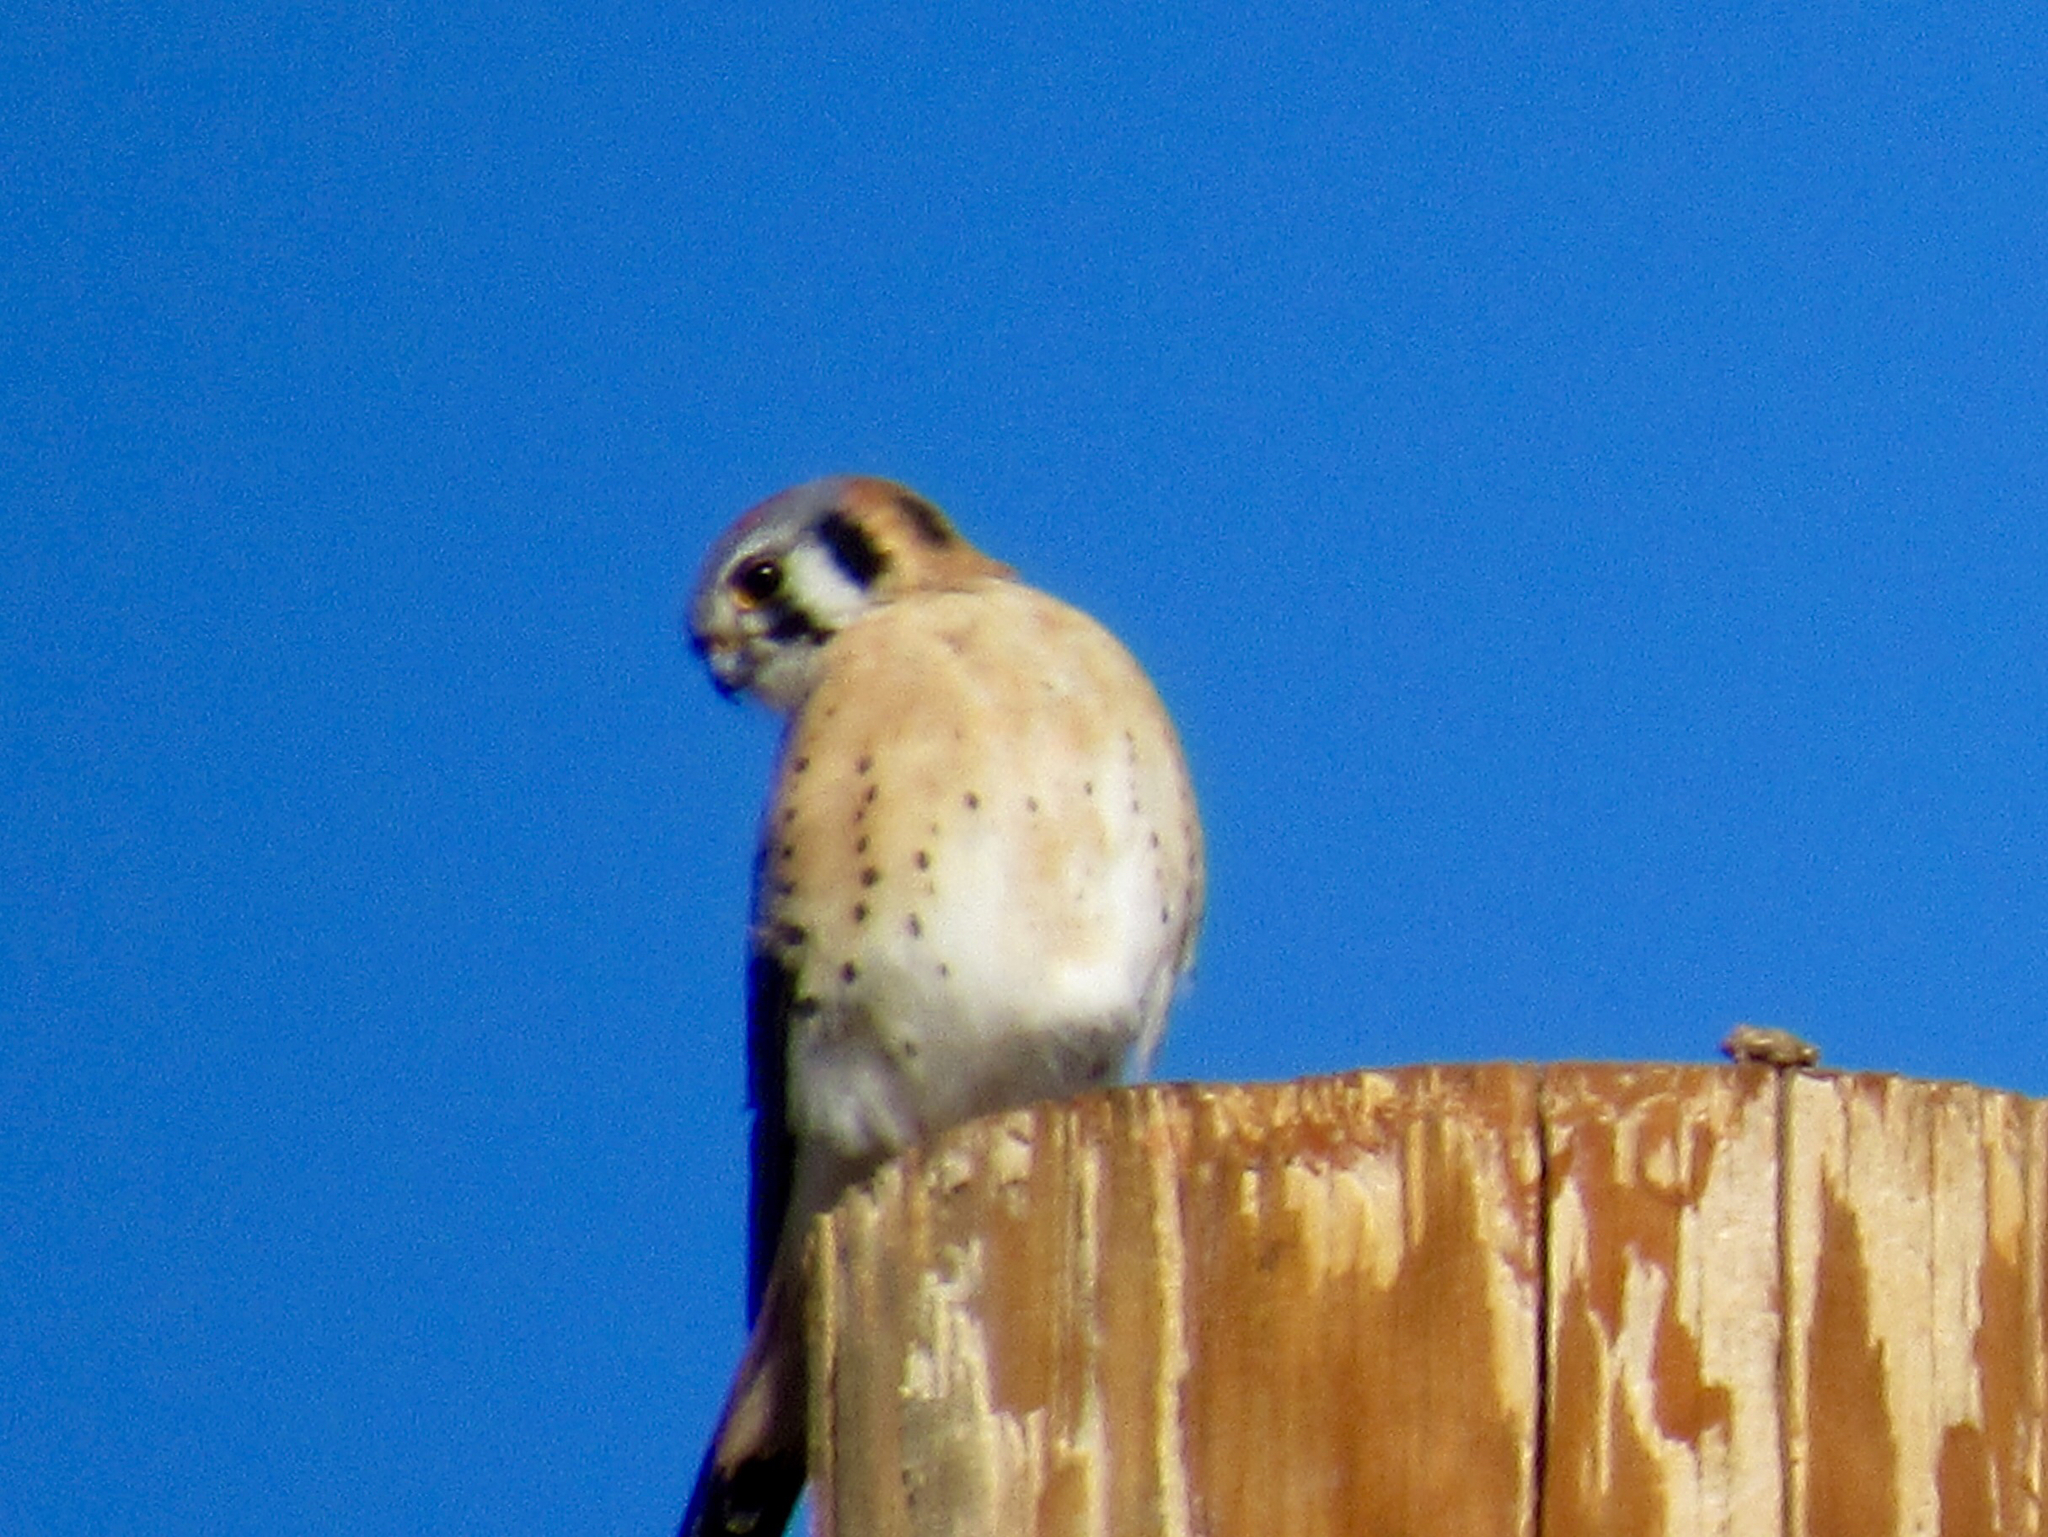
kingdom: Animalia
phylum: Chordata
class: Aves
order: Falconiformes
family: Falconidae
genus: Falco
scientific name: Falco sparverius
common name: American kestrel
